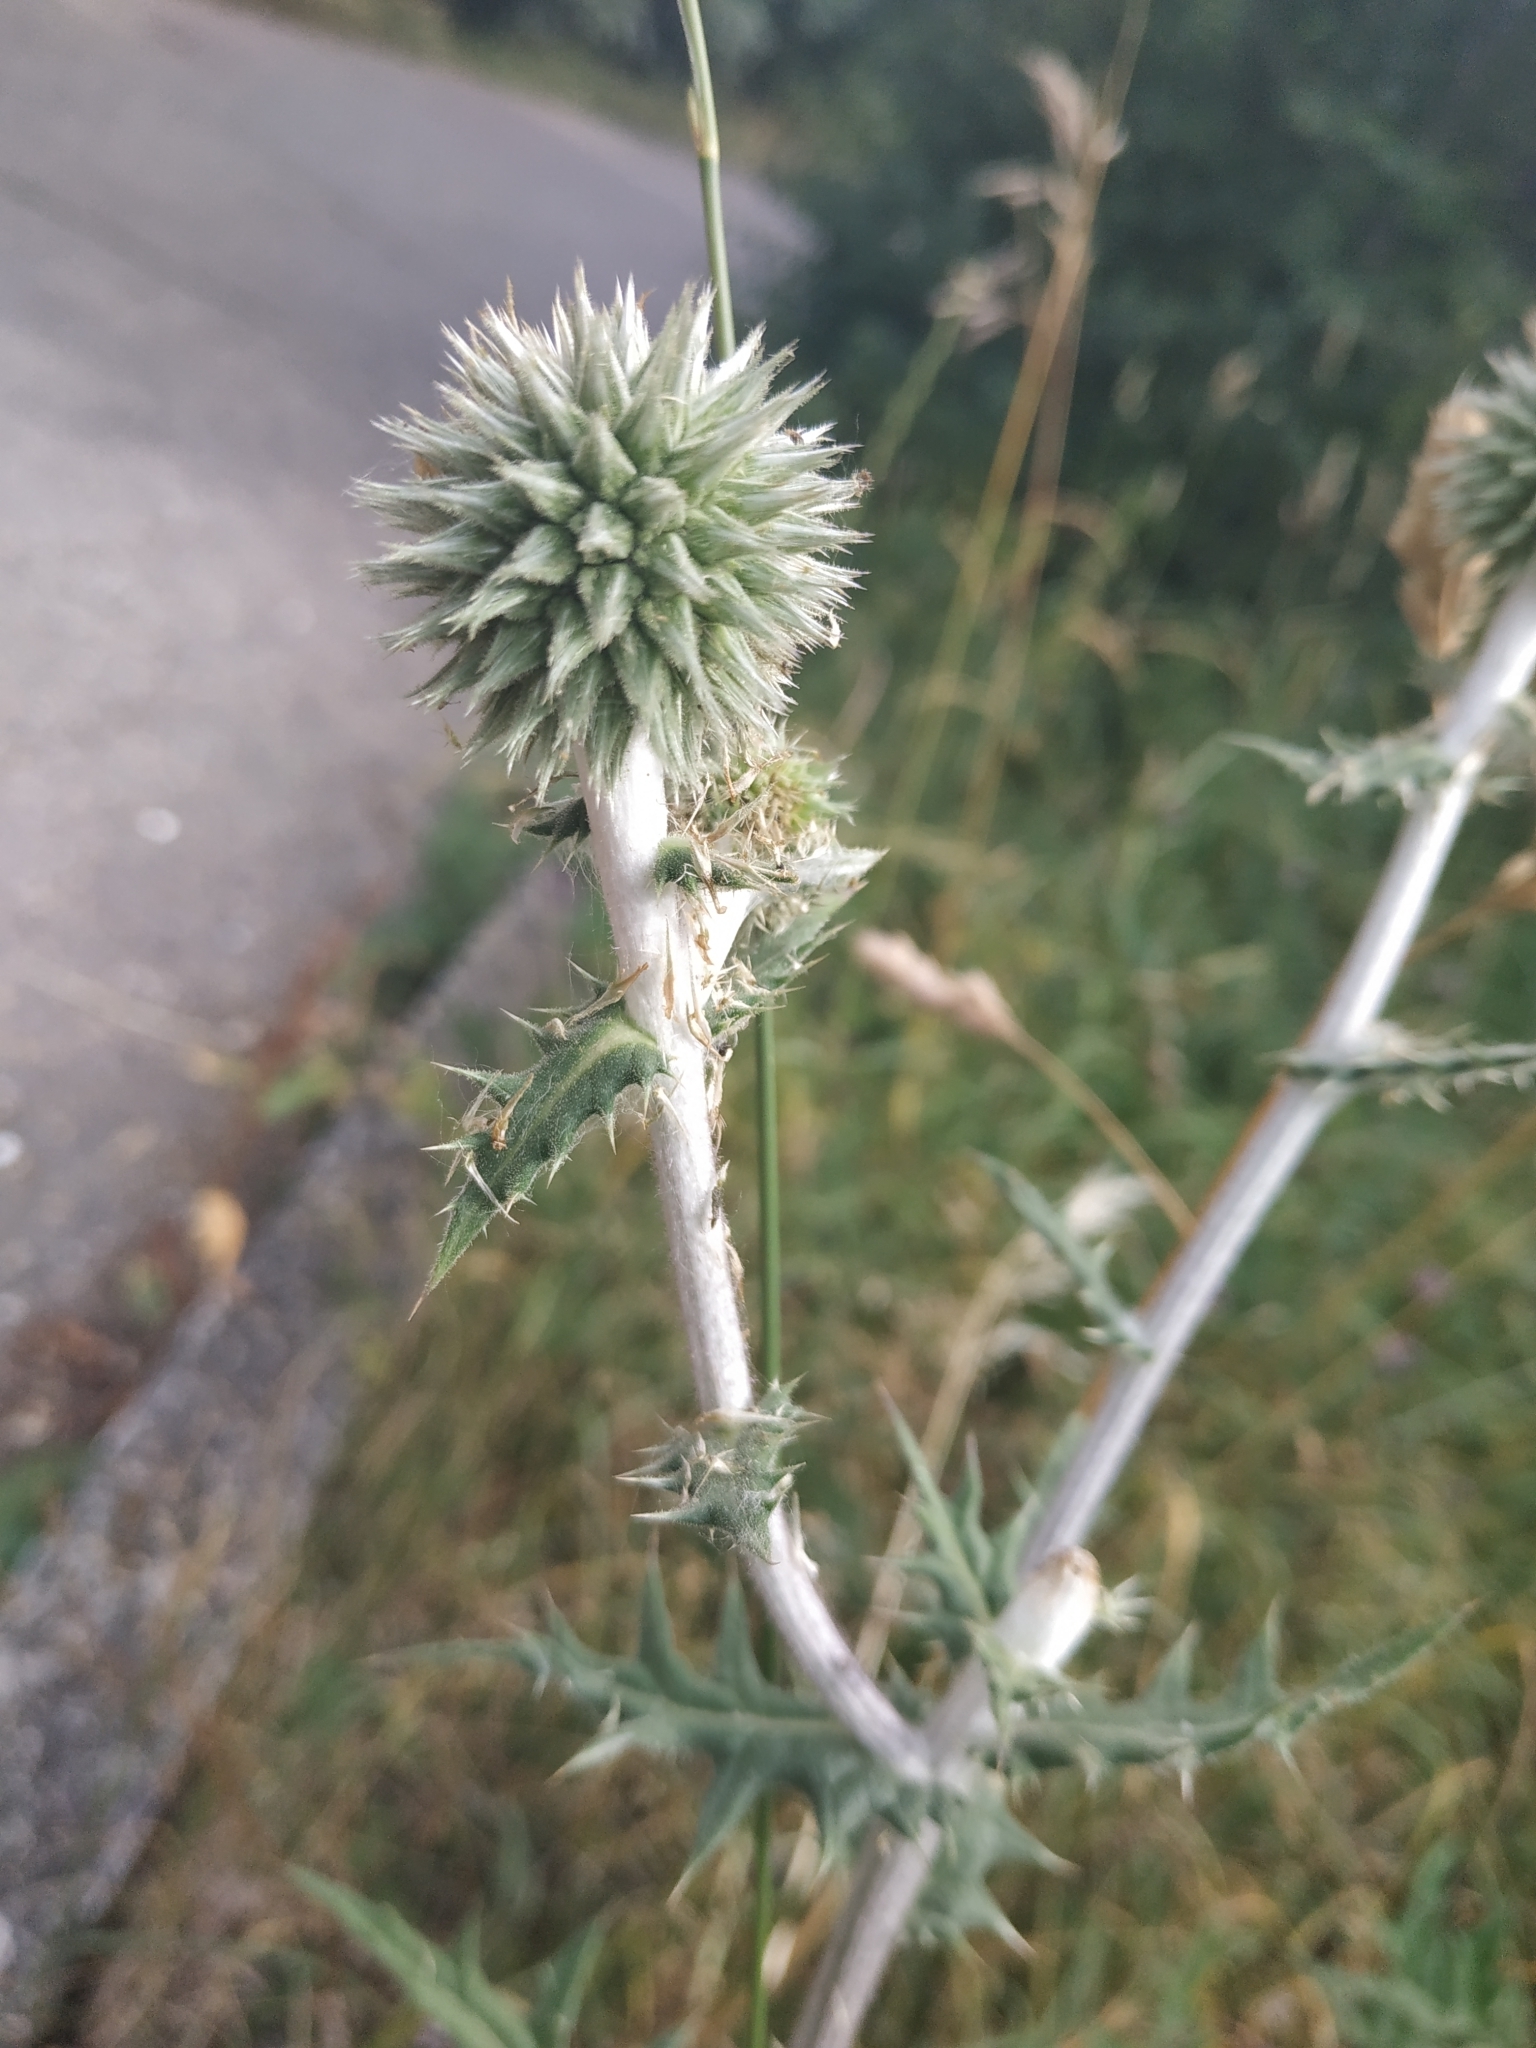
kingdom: Plantae
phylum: Tracheophyta
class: Magnoliopsida
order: Asterales
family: Asteraceae
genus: Echinops
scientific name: Echinops sphaerocephalus
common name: Glandular globe-thistle
